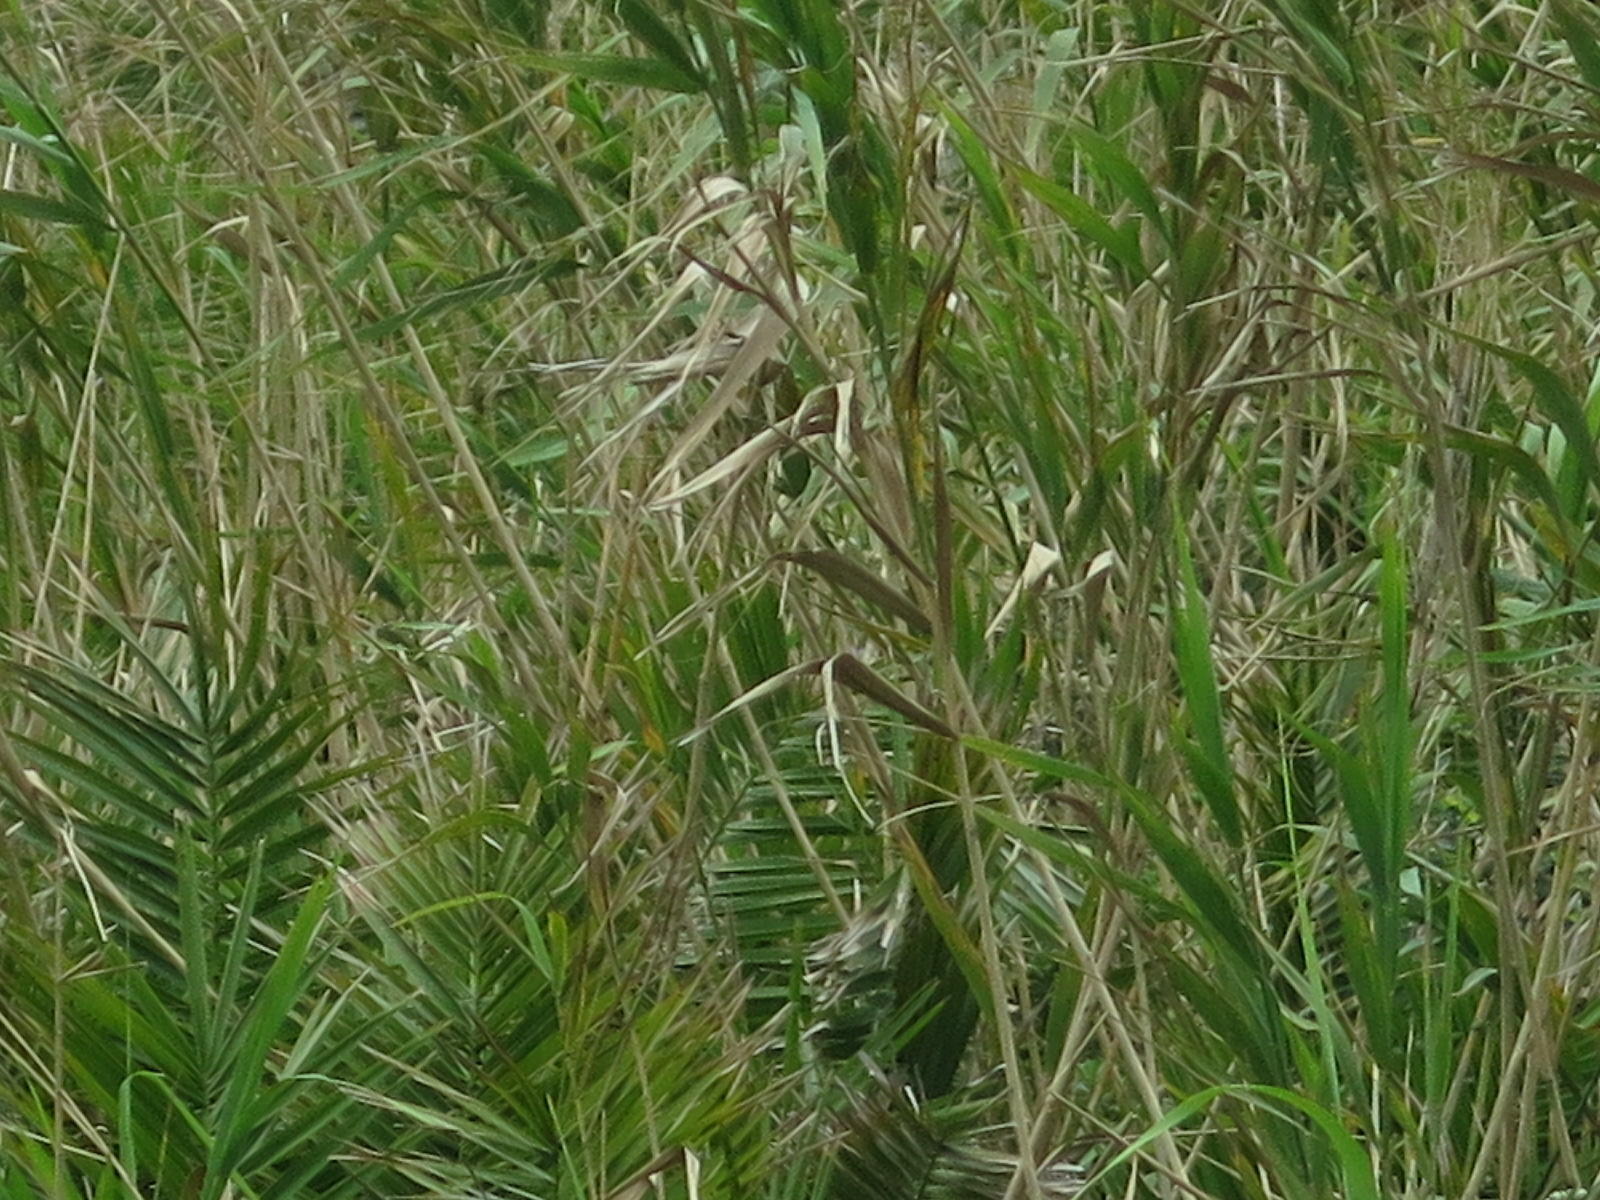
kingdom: Plantae
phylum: Tracheophyta
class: Liliopsida
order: Poales
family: Poaceae
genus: Phragmites
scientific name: Phragmites australis
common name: Common reed
